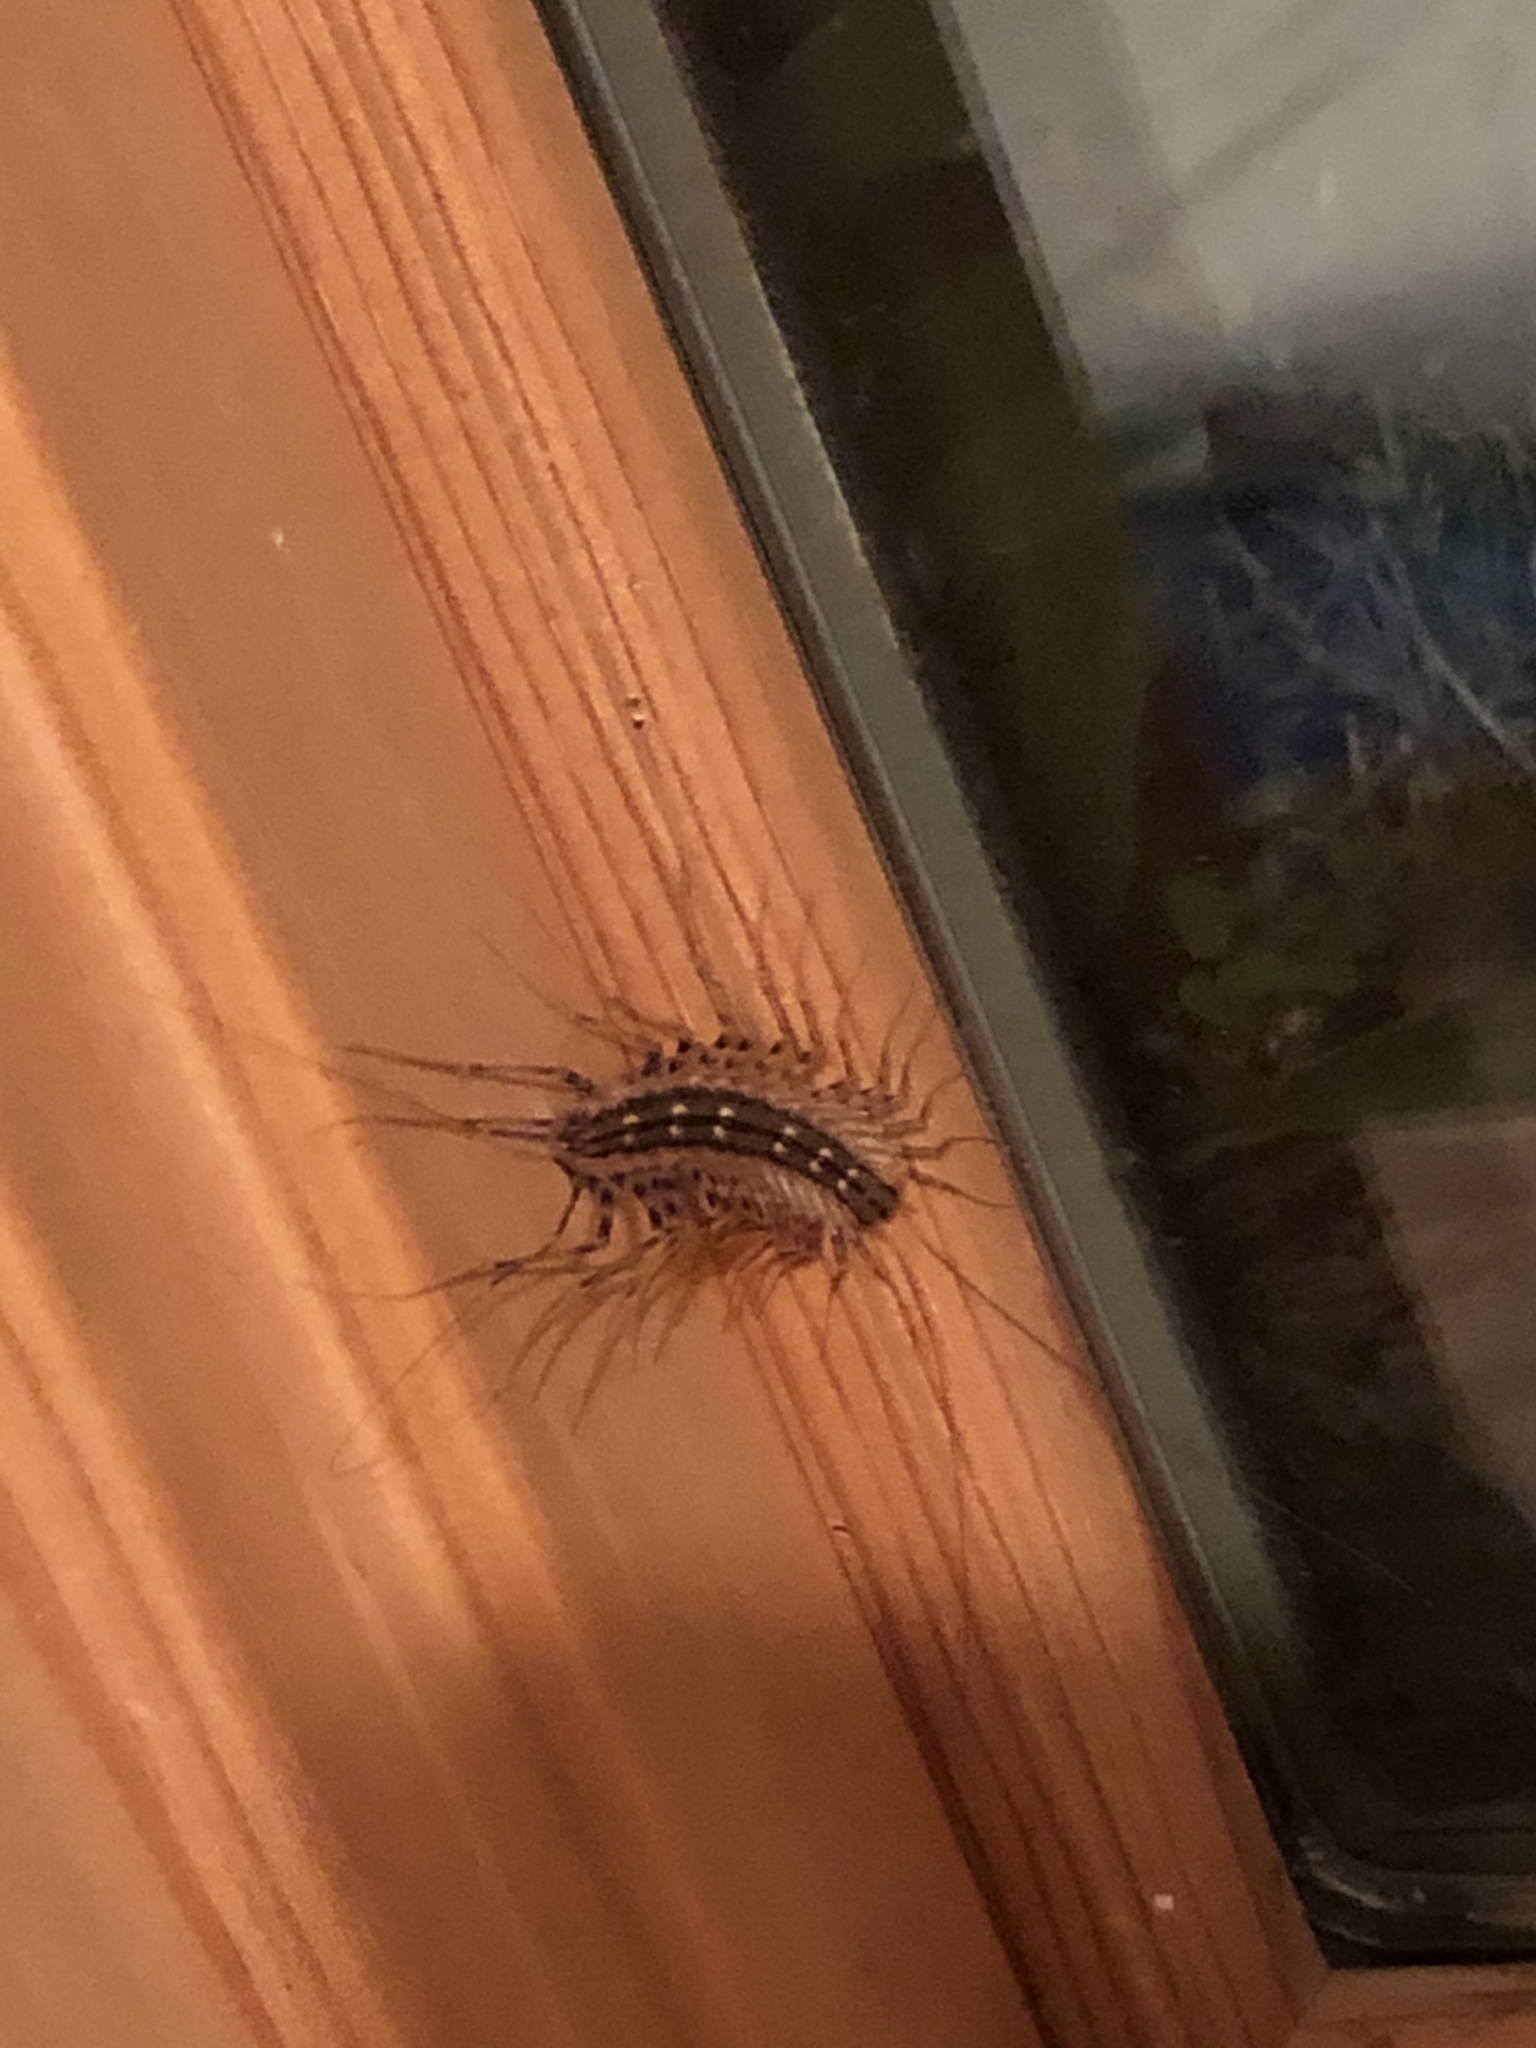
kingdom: Animalia
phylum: Arthropoda
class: Chilopoda
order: Scutigeromorpha
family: Scutigeridae
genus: Scutigera
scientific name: Scutigera coleoptrata
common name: House centipede
